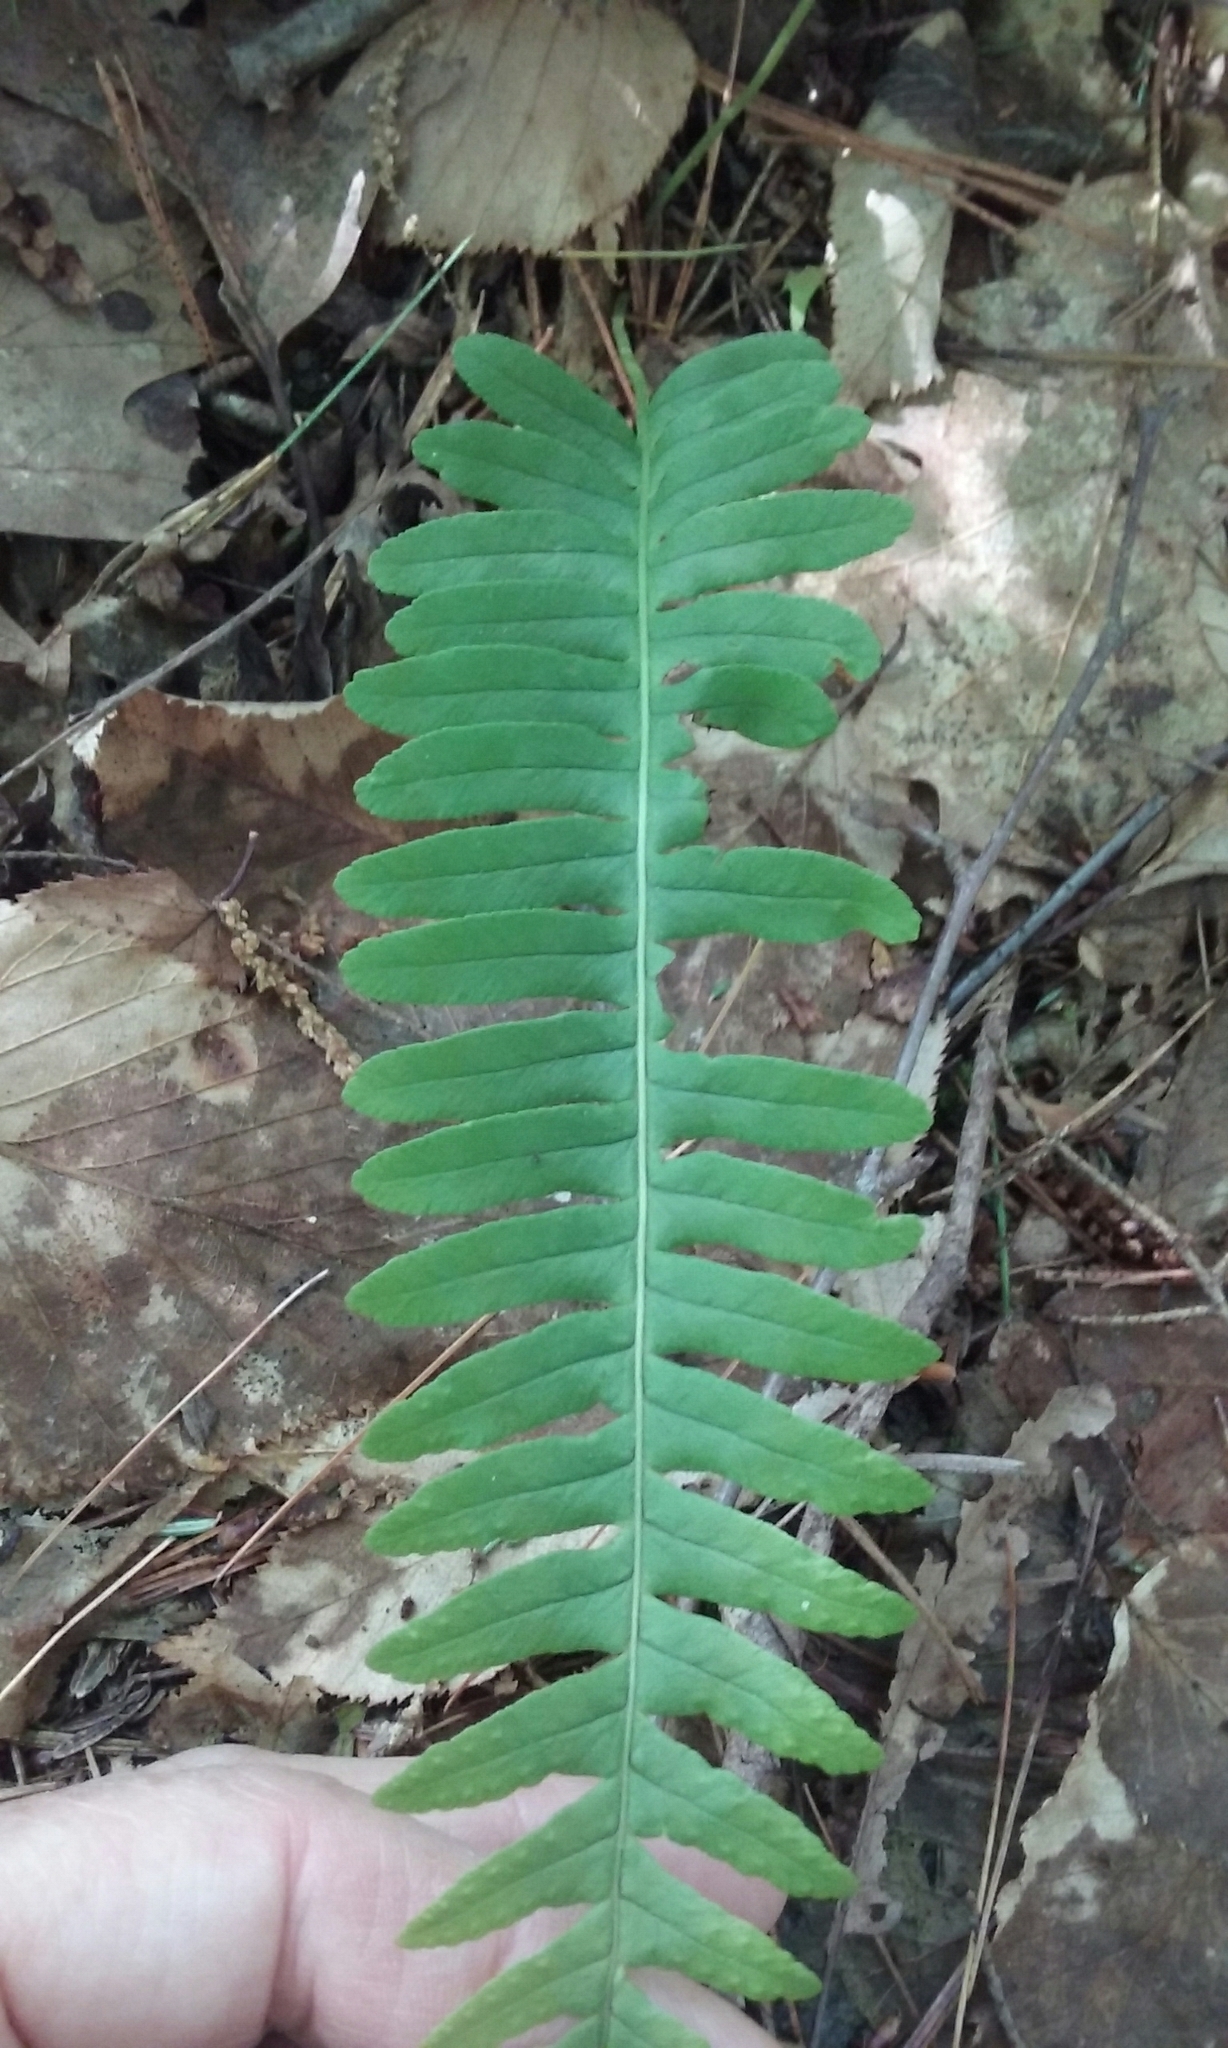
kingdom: Plantae
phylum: Tracheophyta
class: Polypodiopsida
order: Polypodiales
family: Polypodiaceae
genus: Polypodium
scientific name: Polypodium virginianum
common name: American wall fern
